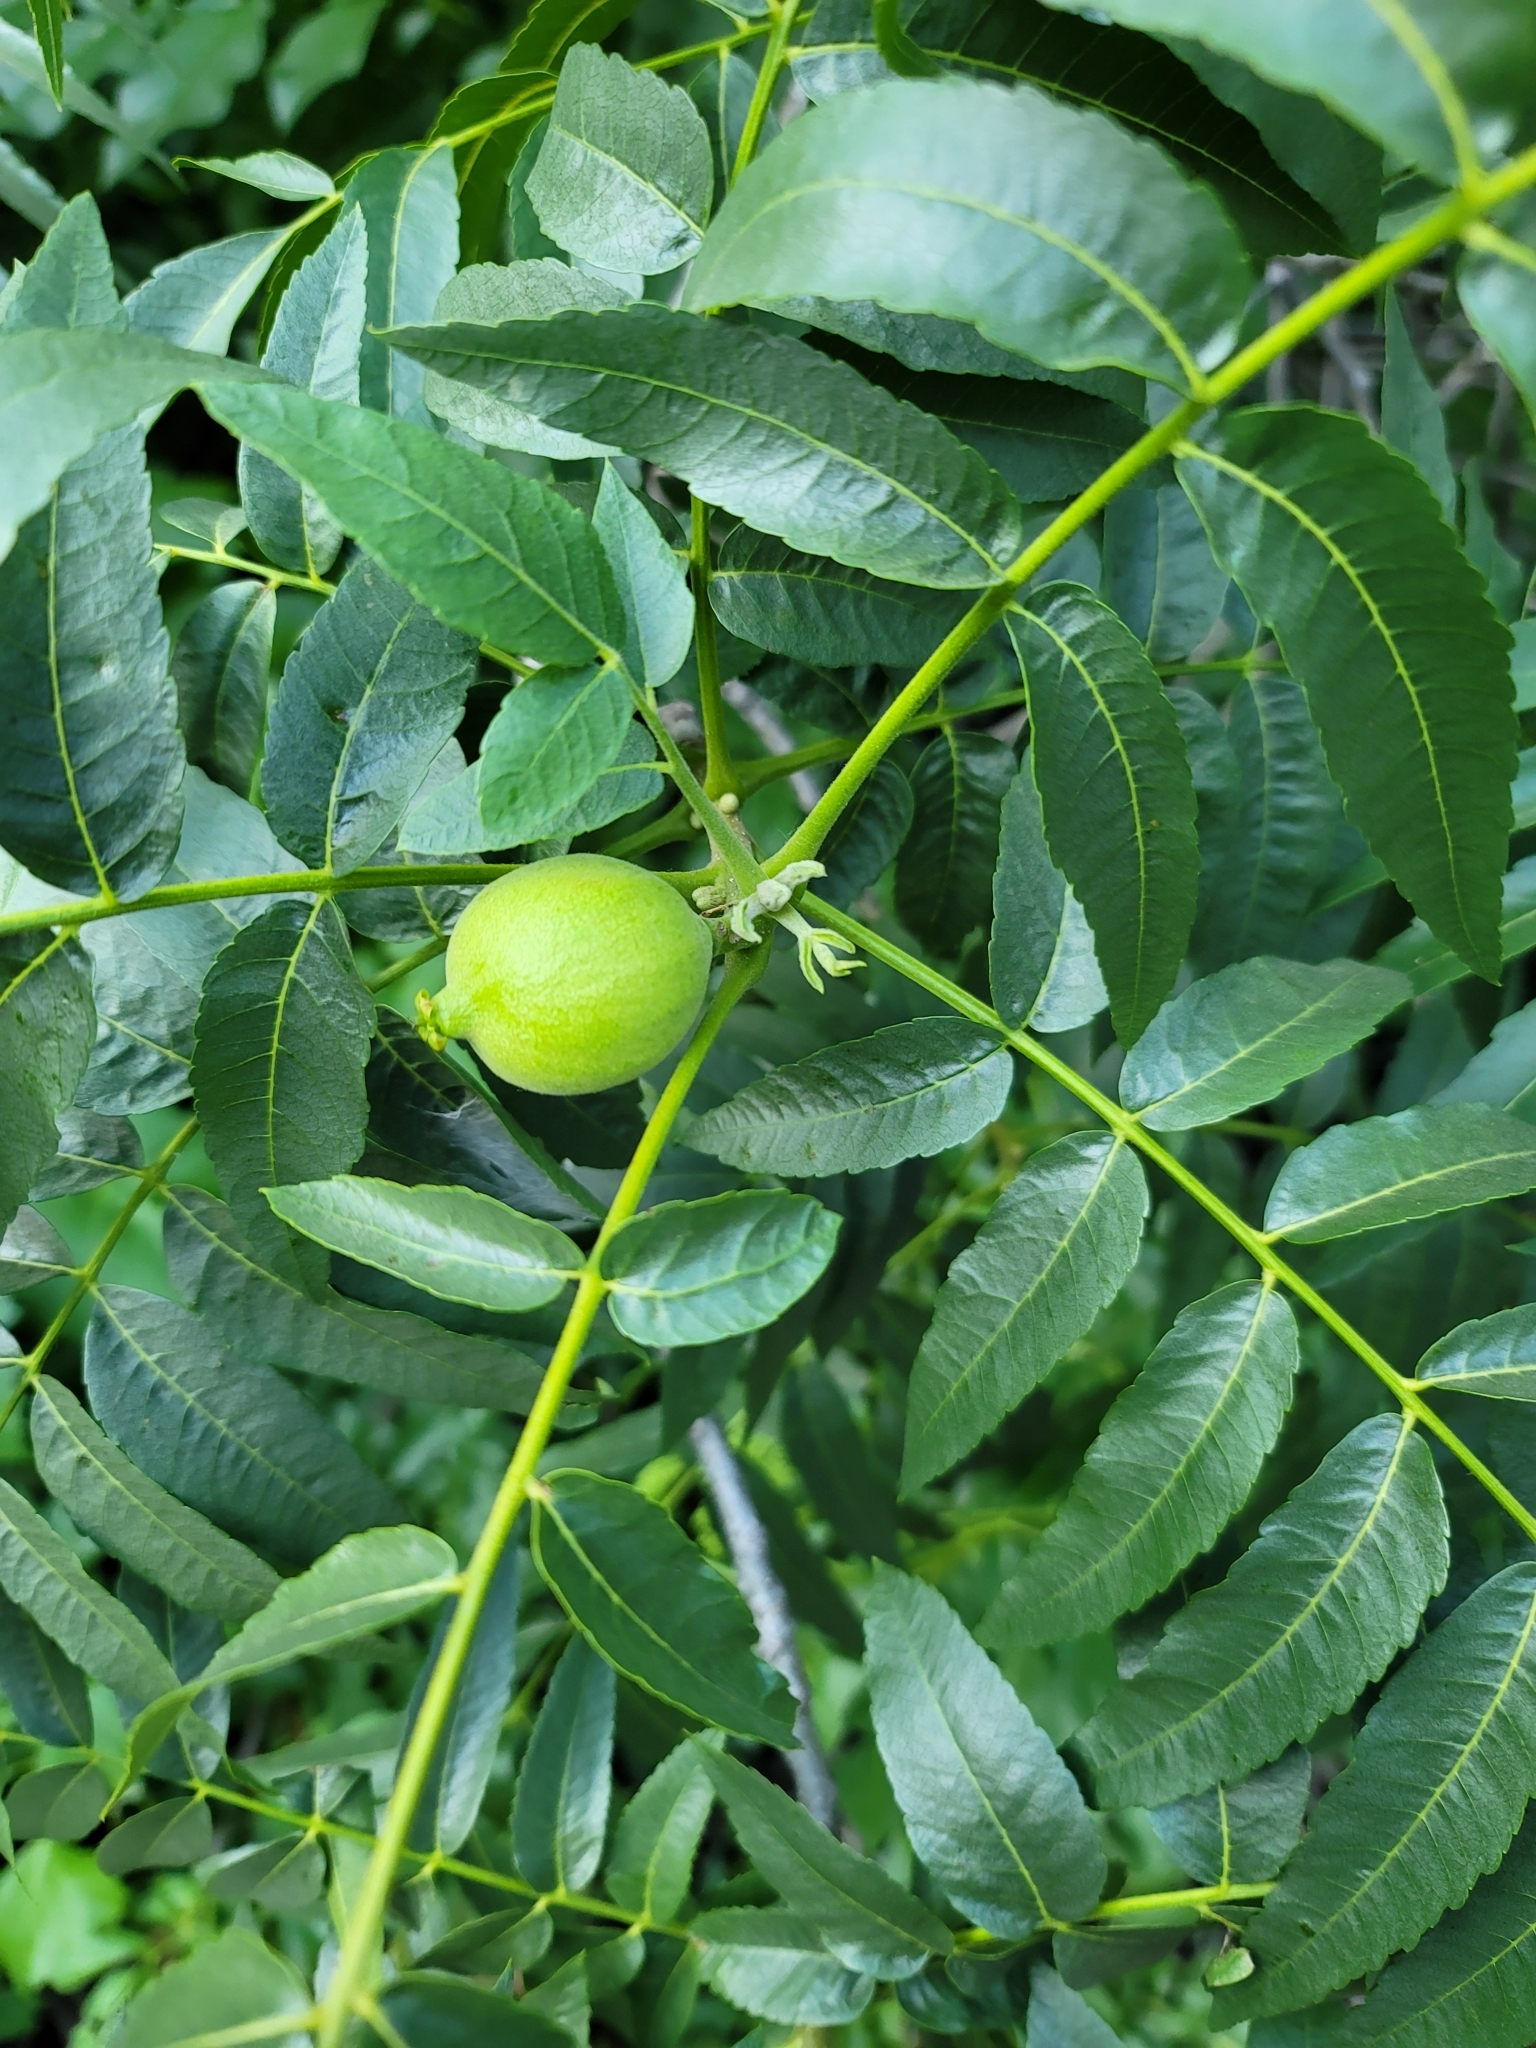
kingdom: Plantae
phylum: Tracheophyta
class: Magnoliopsida
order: Fagales
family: Juglandaceae
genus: Juglans
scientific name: Juglans hindsii
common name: Northern california black walnut
